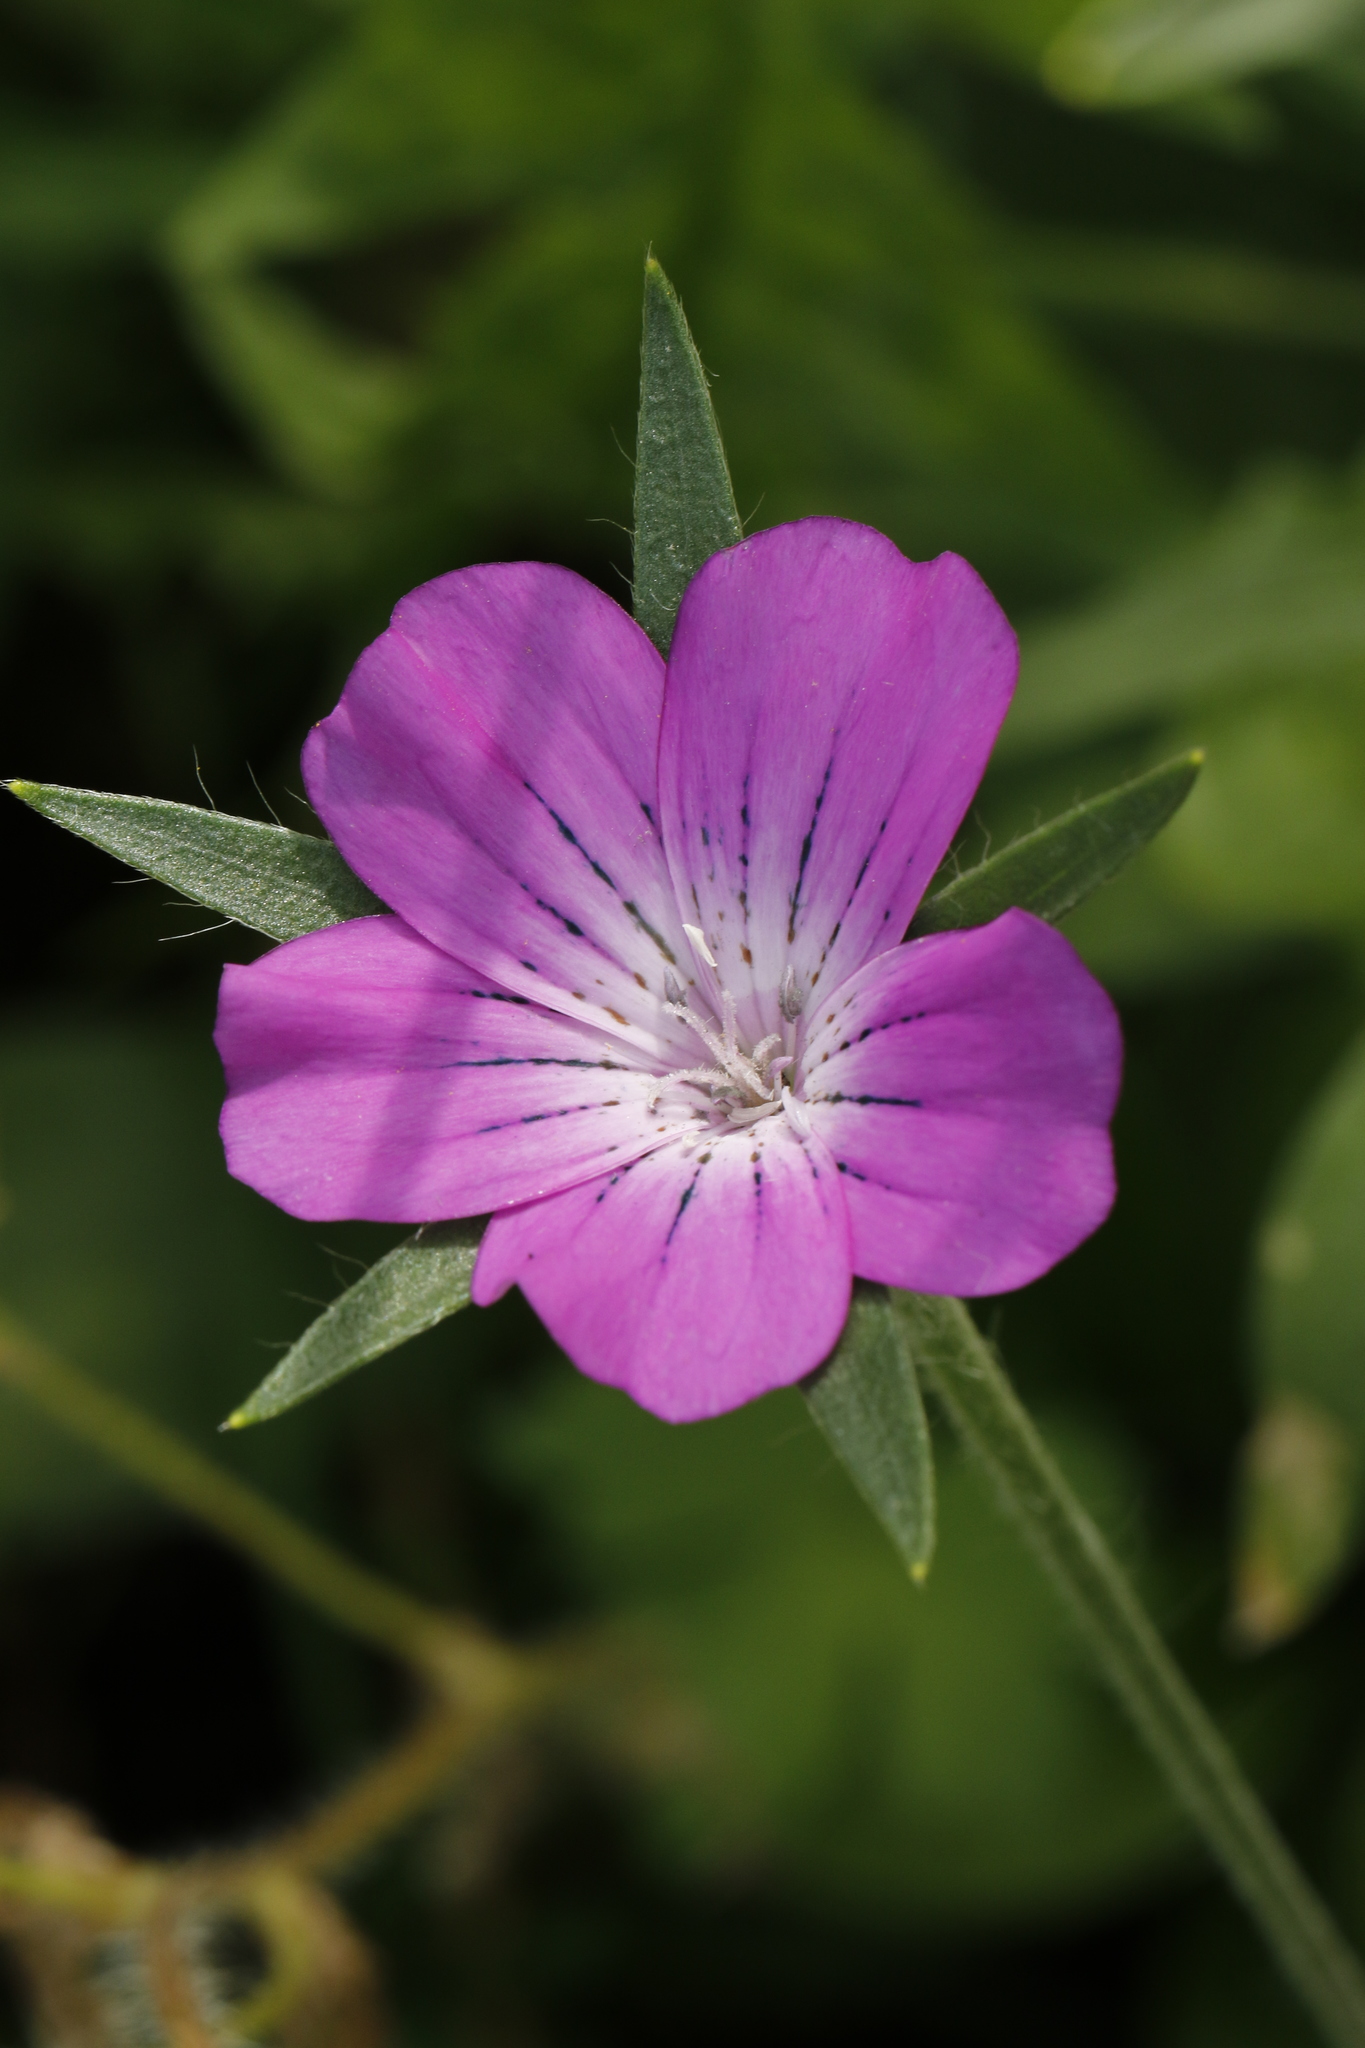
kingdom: Plantae
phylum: Tracheophyta
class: Magnoliopsida
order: Caryophyllales
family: Caryophyllaceae
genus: Agrostemma
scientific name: Agrostemma githago
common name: Common corncockle
